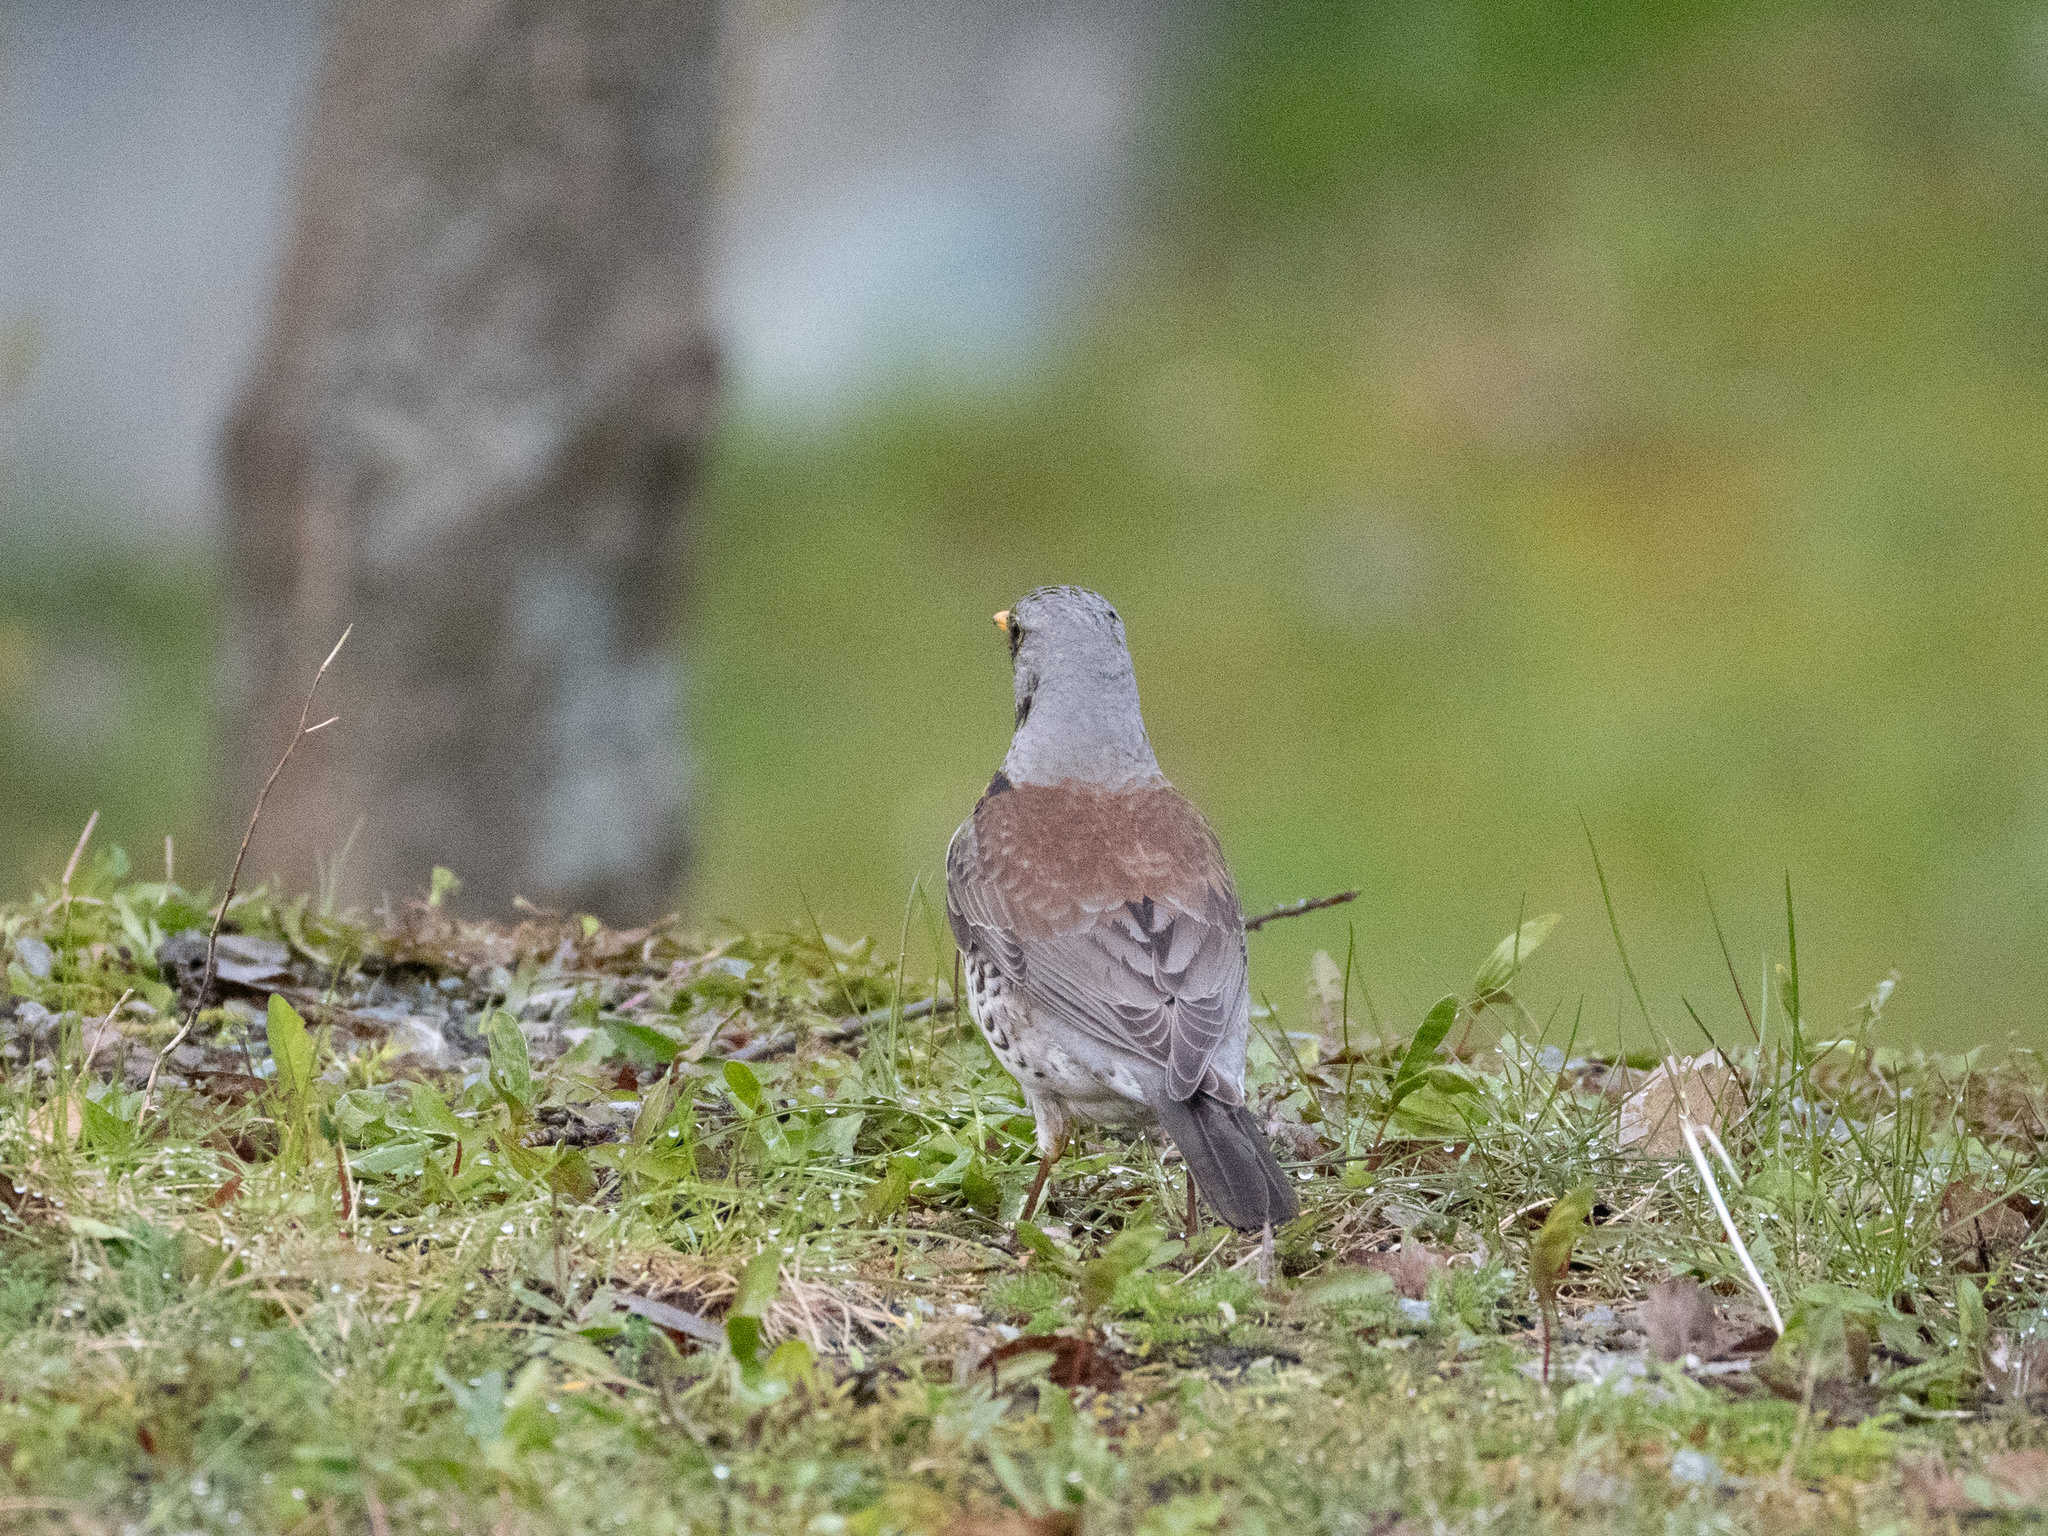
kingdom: Animalia
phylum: Chordata
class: Aves
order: Passeriformes
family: Turdidae
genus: Turdus
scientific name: Turdus pilaris
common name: Fieldfare
